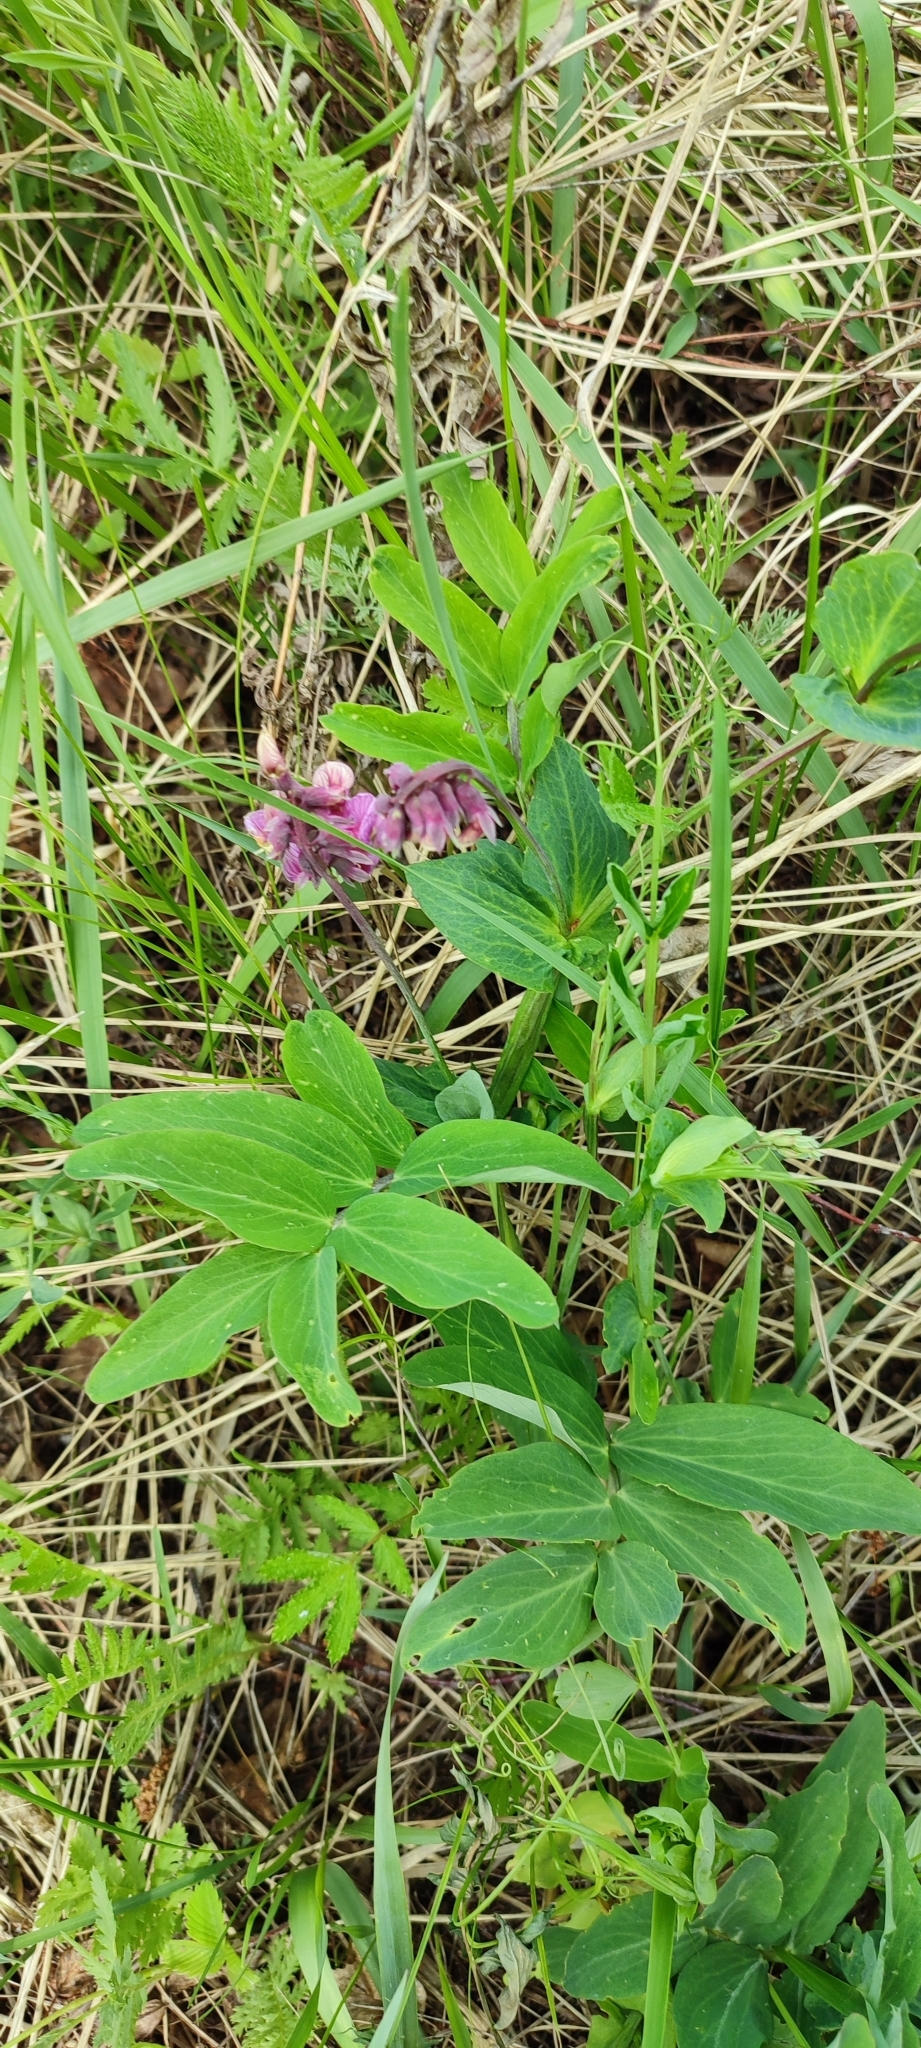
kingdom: Plantae
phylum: Tracheophyta
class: Magnoliopsida
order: Fabales
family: Fabaceae
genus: Lathyrus
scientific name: Lathyrus pisiformis
